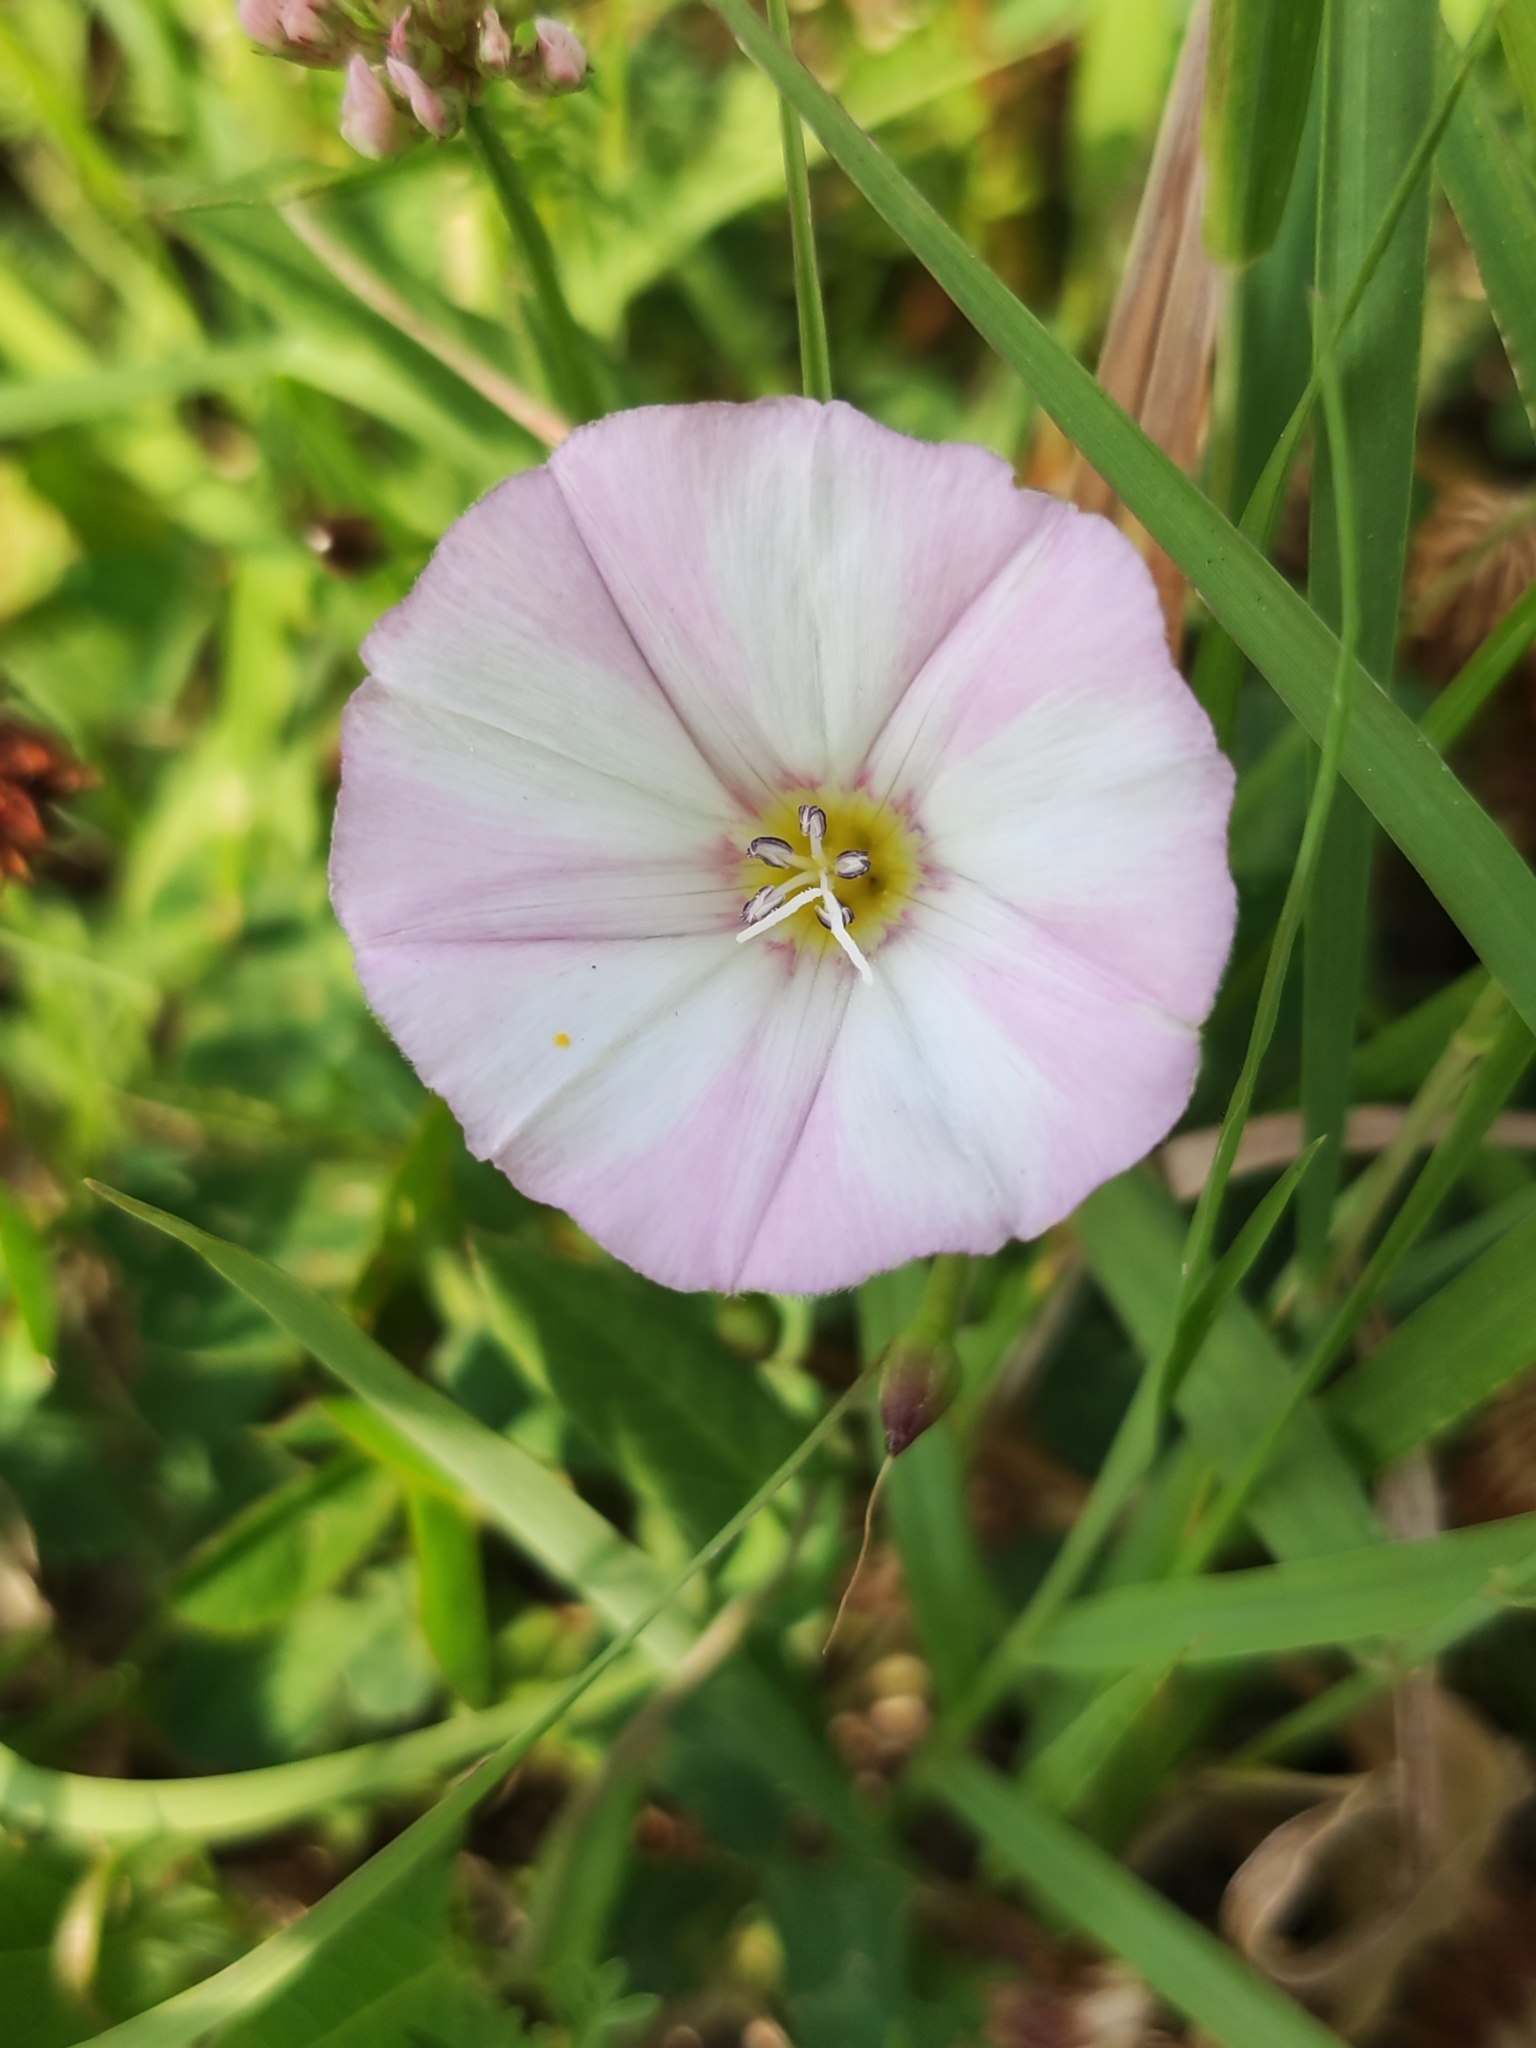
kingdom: Plantae
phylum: Tracheophyta
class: Magnoliopsida
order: Solanales
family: Convolvulaceae
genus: Convolvulus
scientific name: Convolvulus arvensis
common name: Field bindweed
